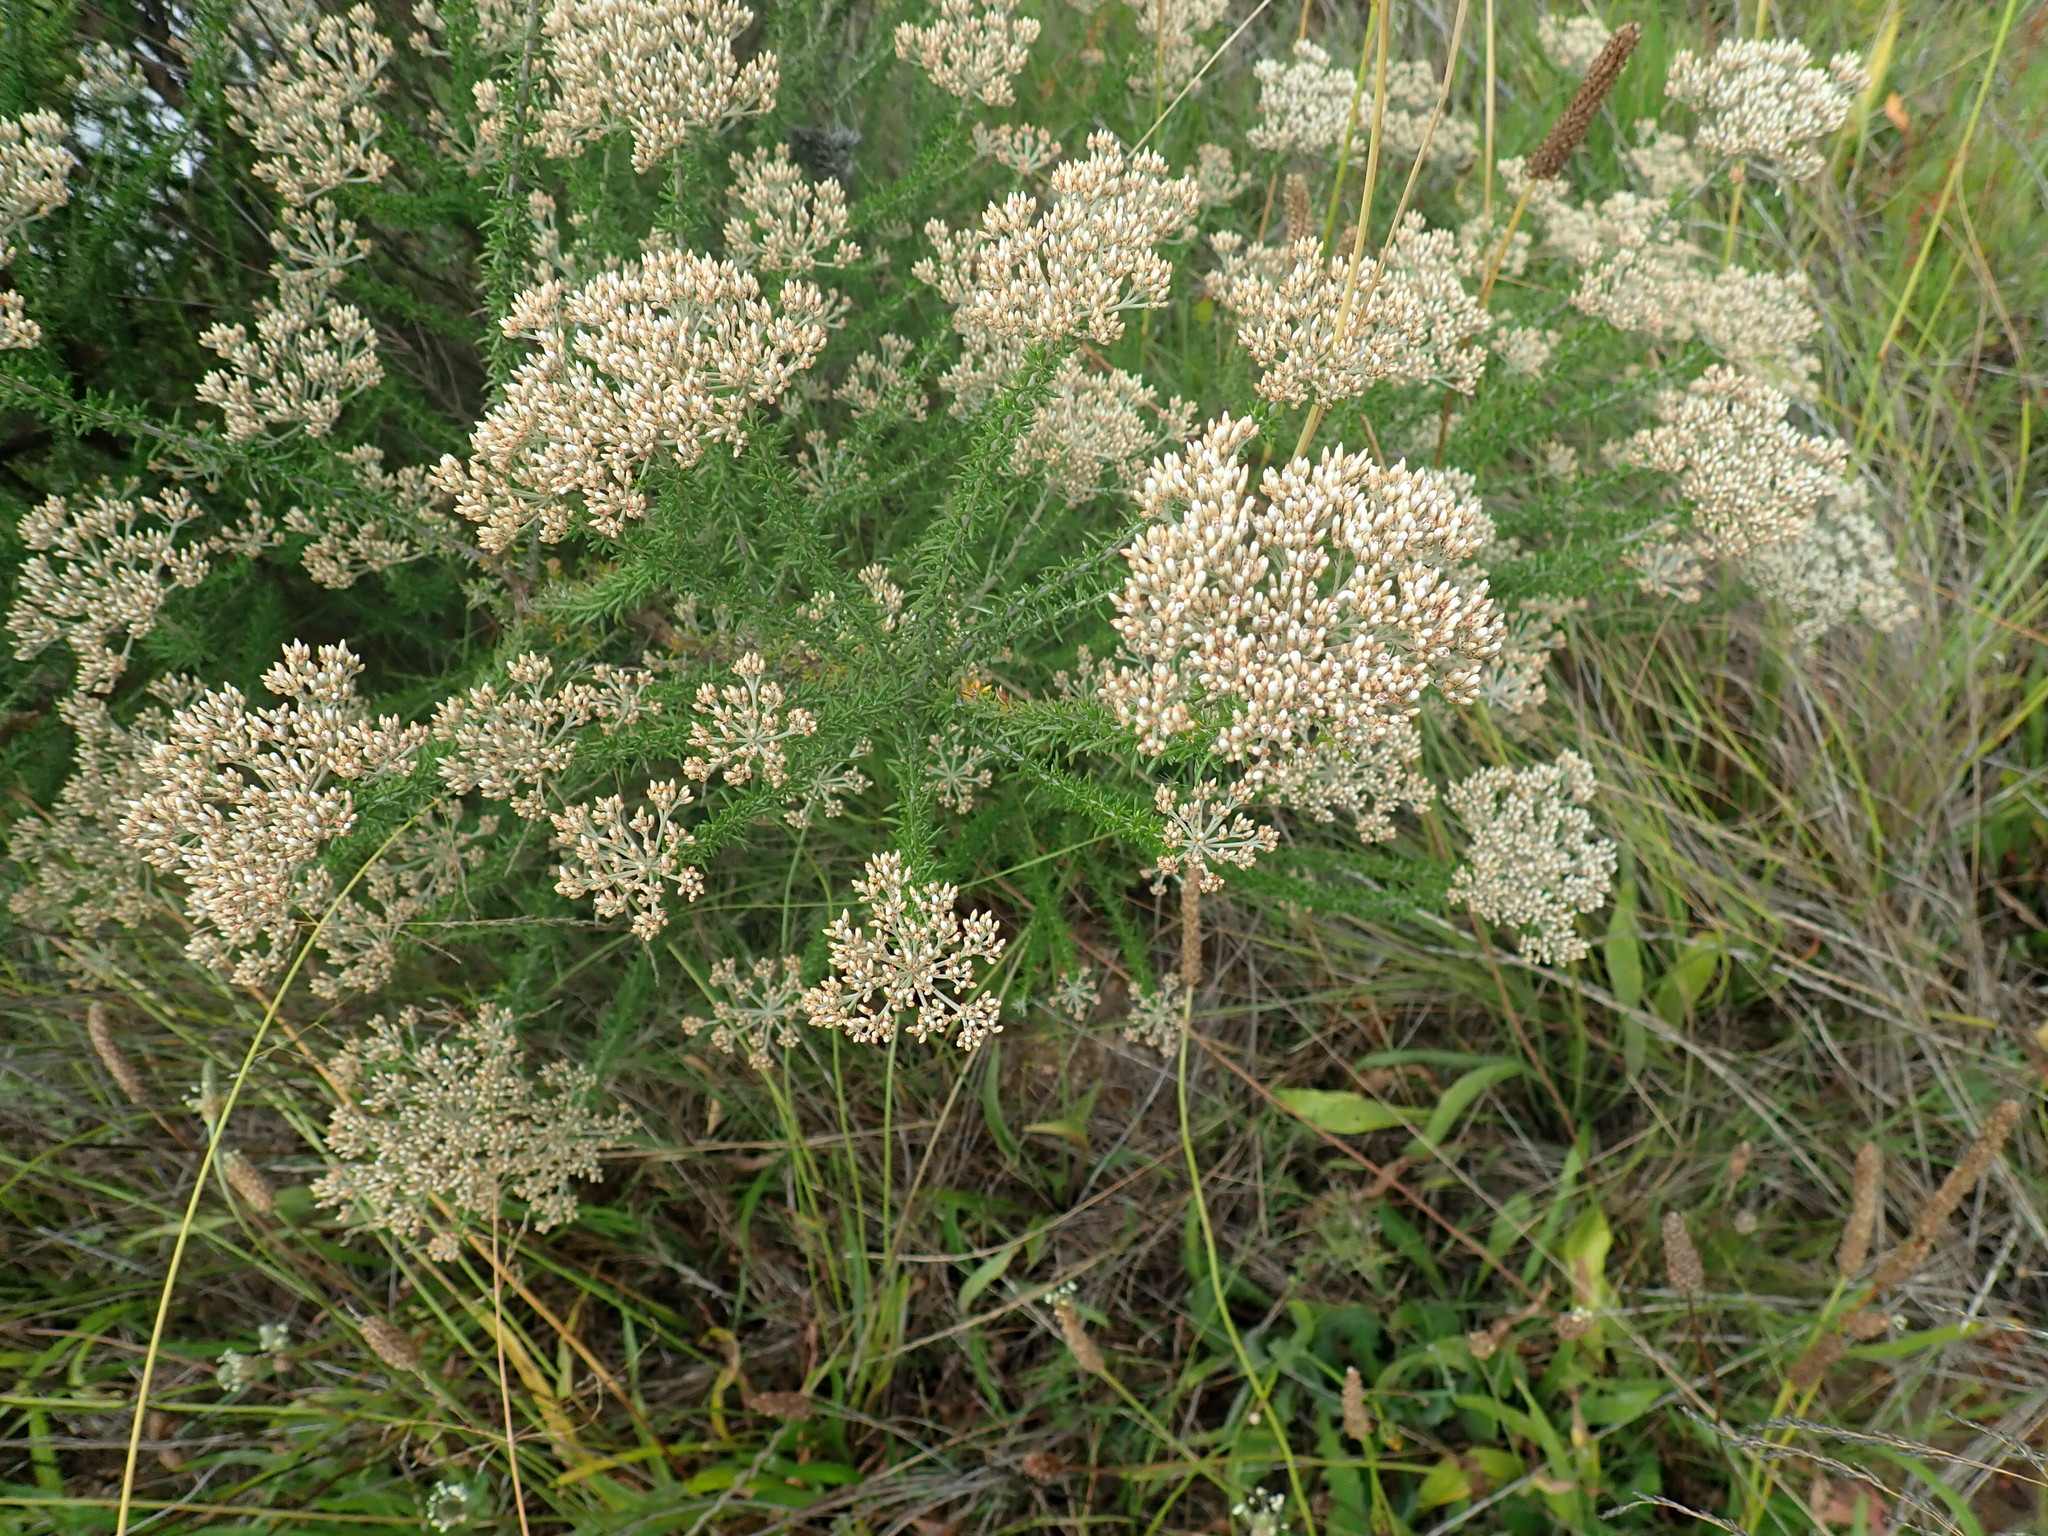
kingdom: Plantae
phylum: Tracheophyta
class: Magnoliopsida
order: Asterales
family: Asteraceae
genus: Metalasia
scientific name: Metalasia densa
